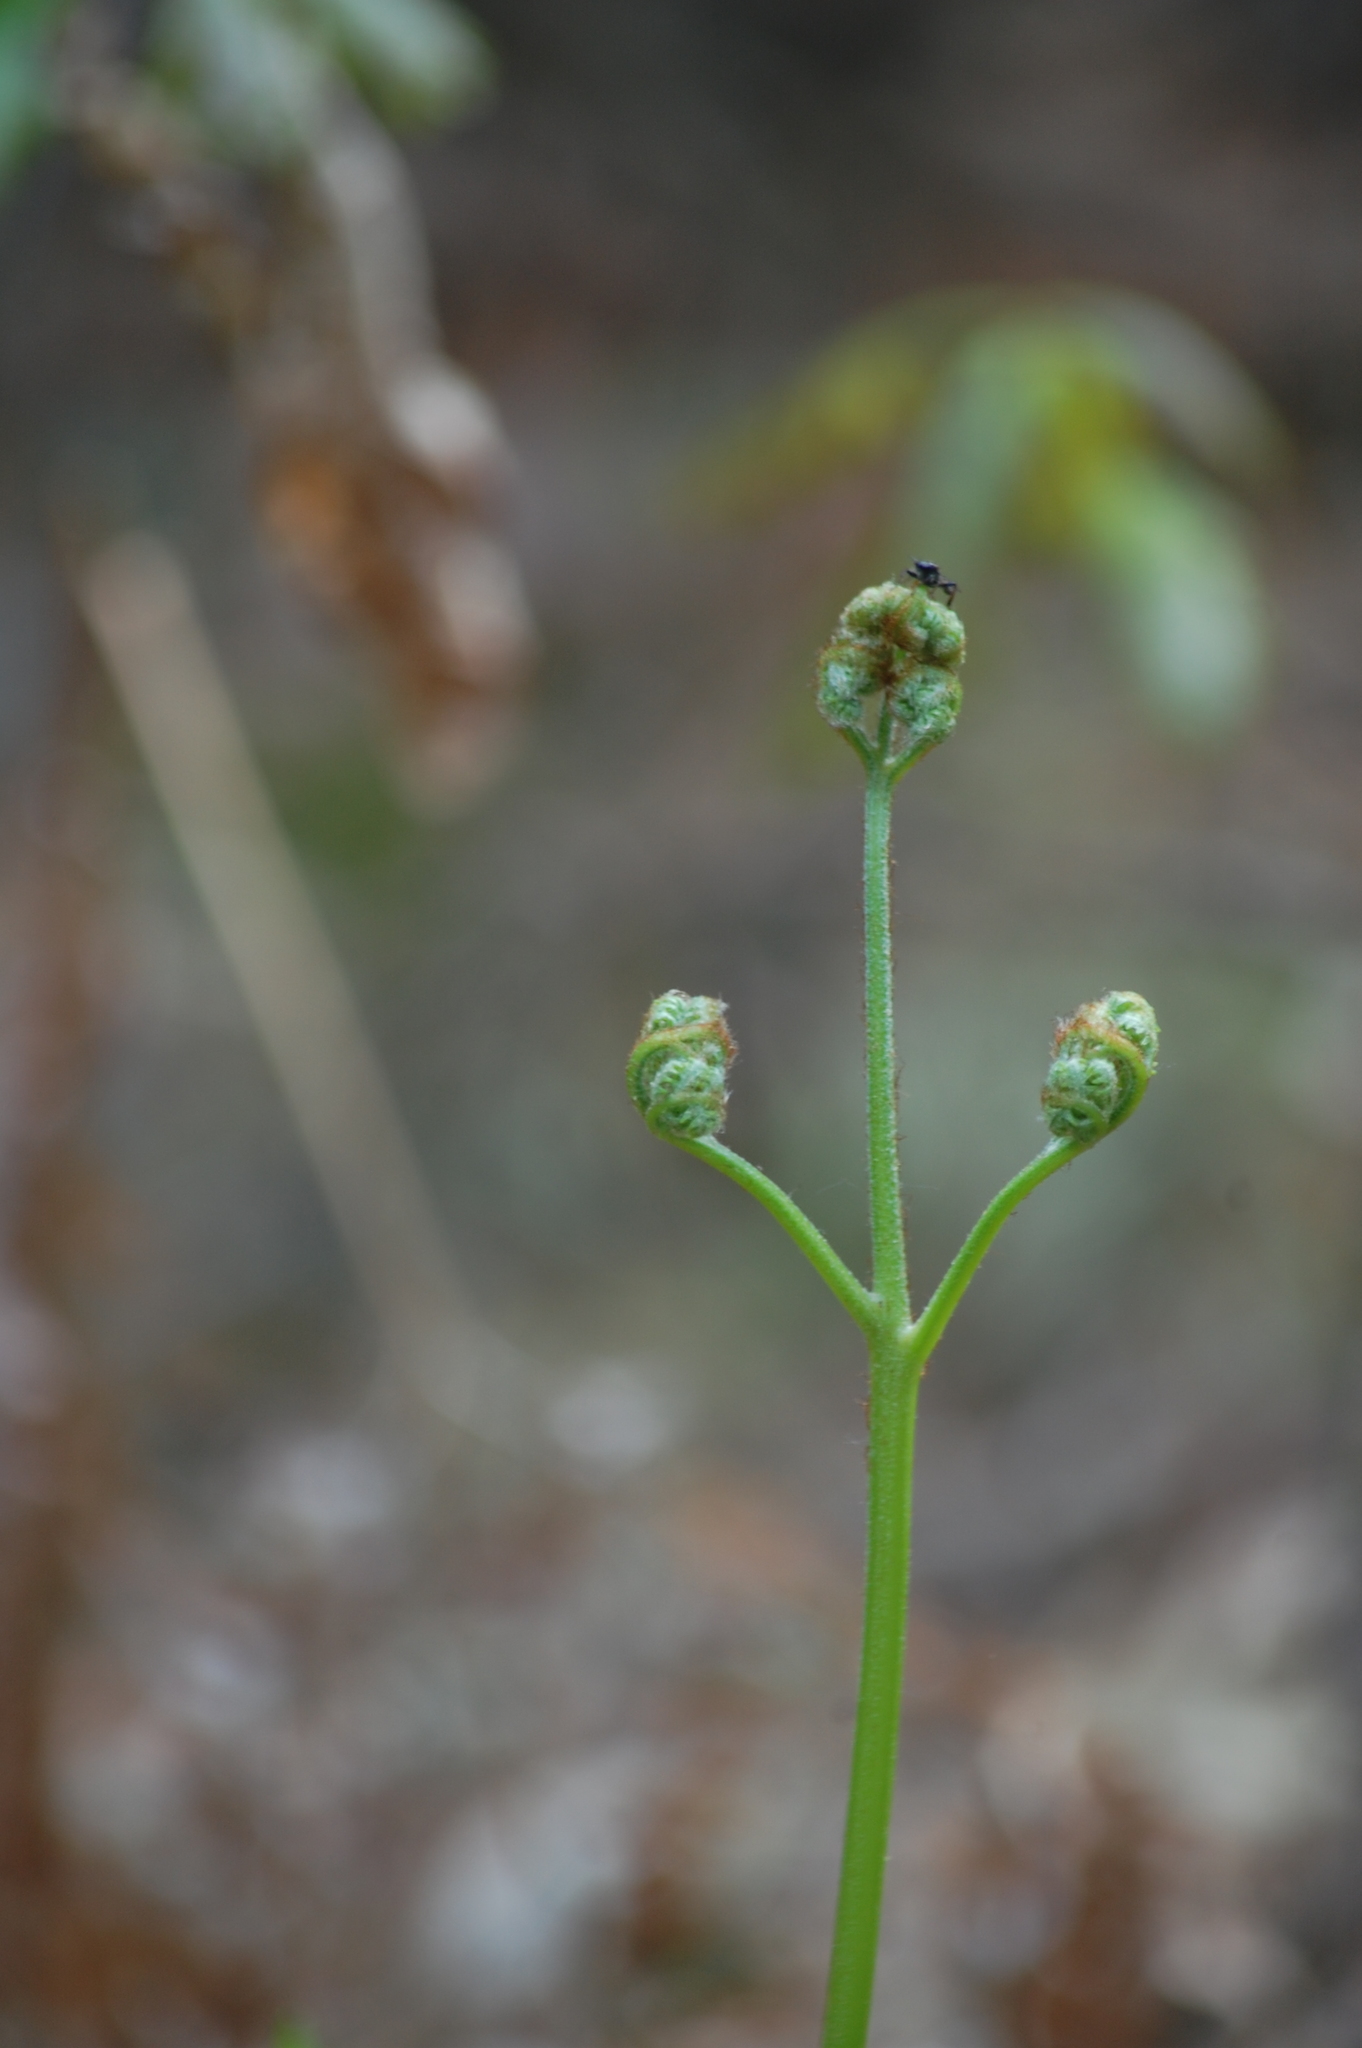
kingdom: Plantae
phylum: Tracheophyta
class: Polypodiopsida
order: Polypodiales
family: Dennstaedtiaceae
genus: Pteridium
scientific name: Pteridium aquilinum
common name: Bracken
